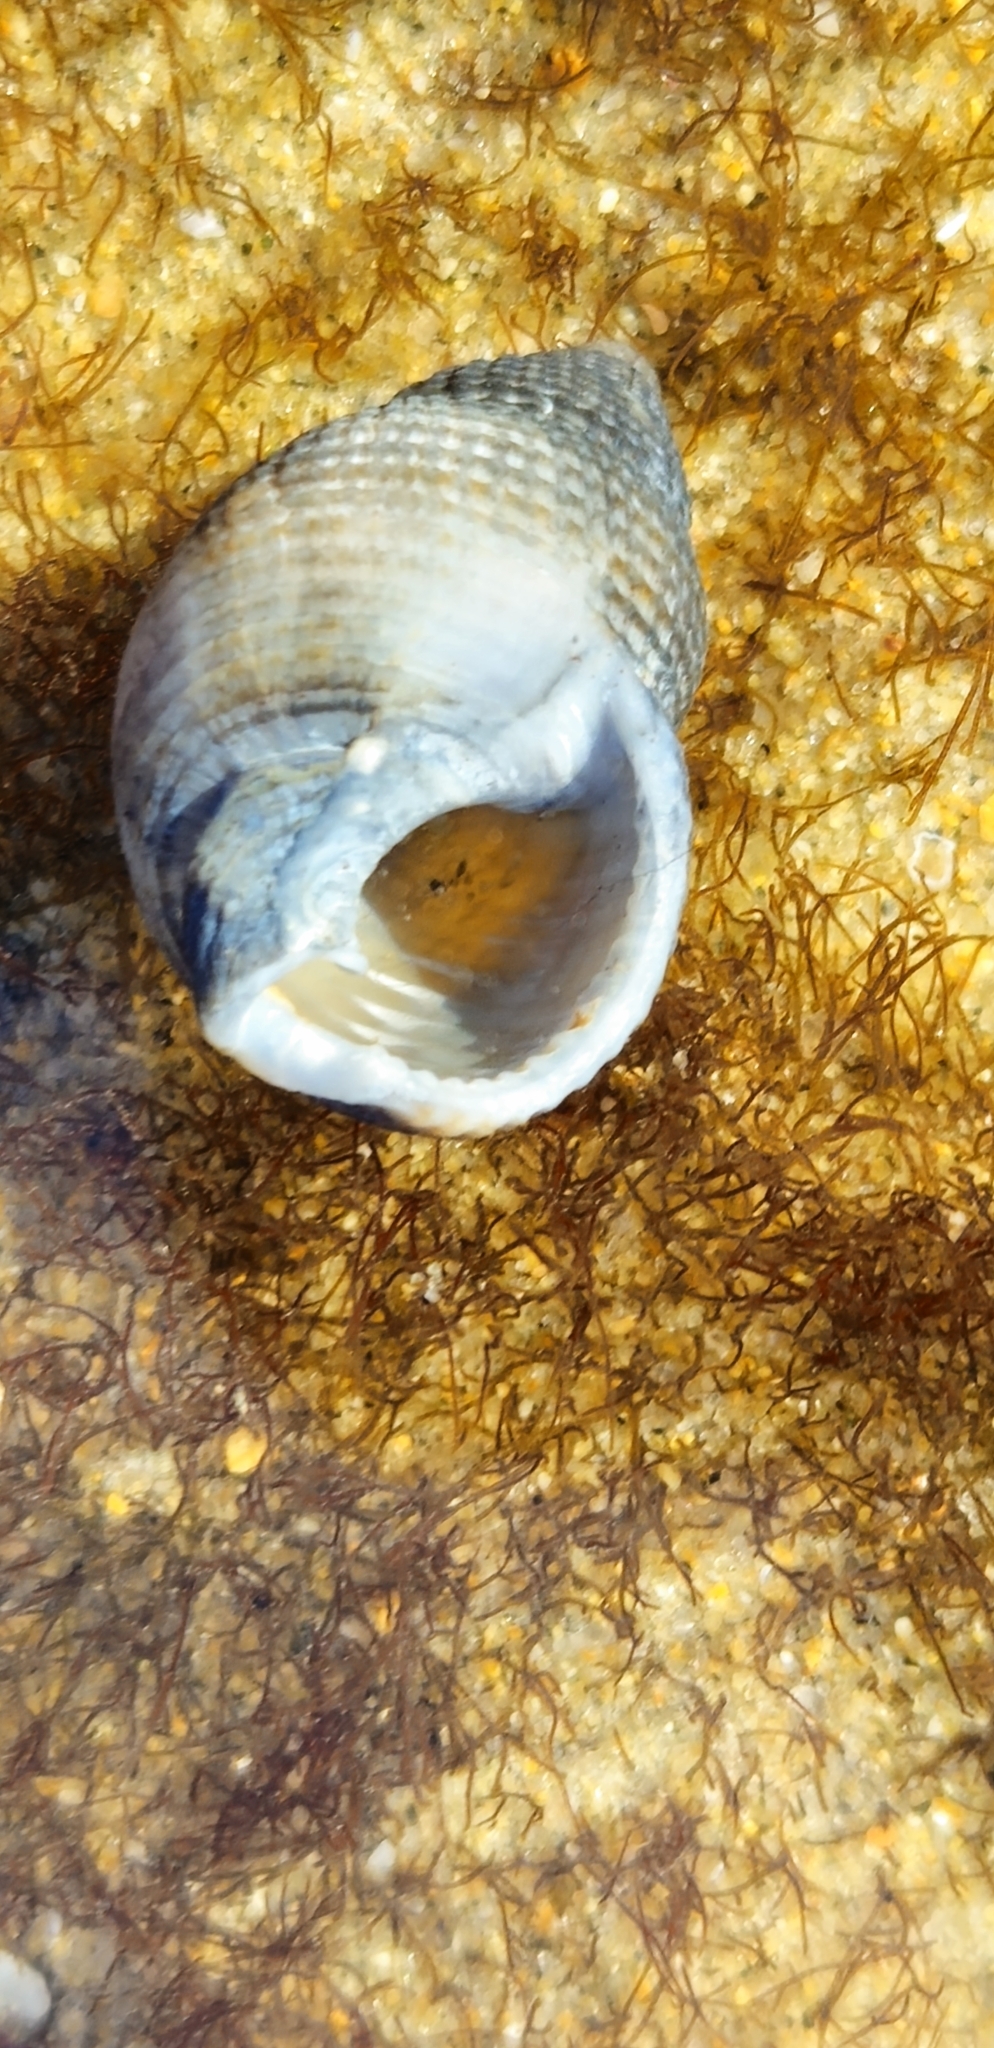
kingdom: Animalia
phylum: Mollusca
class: Gastropoda
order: Neogastropoda
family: Nassariidae
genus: Caesia
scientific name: Caesia perpinguis
